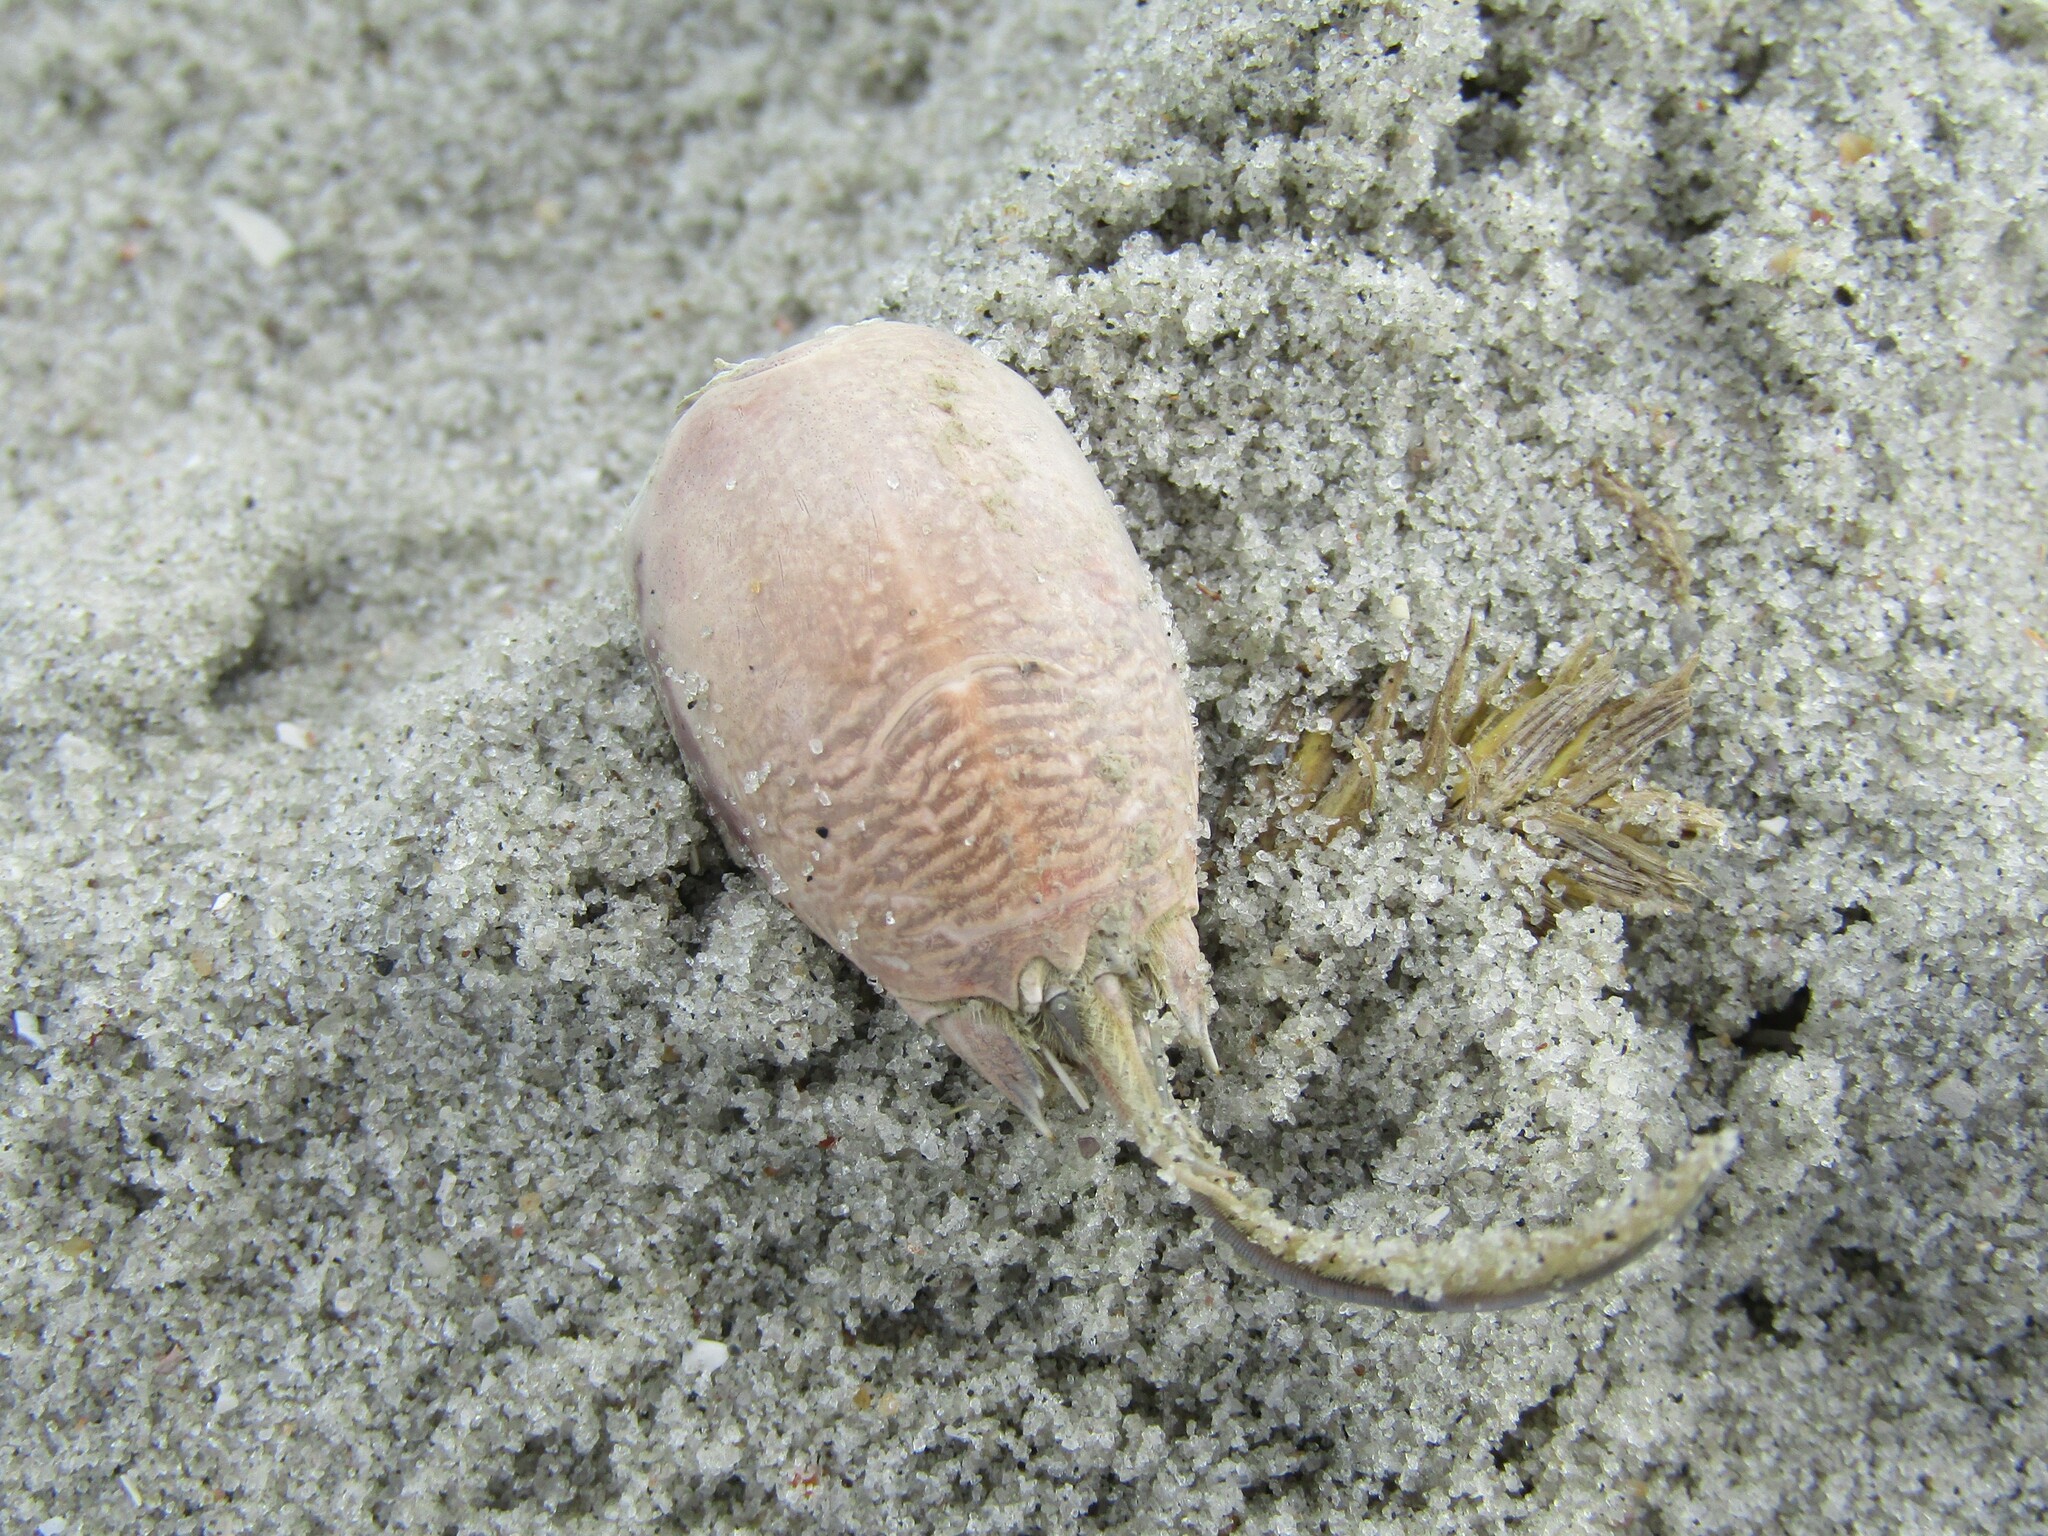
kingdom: Animalia
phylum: Arthropoda
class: Malacostraca
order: Decapoda
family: Hippidae
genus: Emerita
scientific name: Emerita talpoida
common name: Atlantic sand crab
